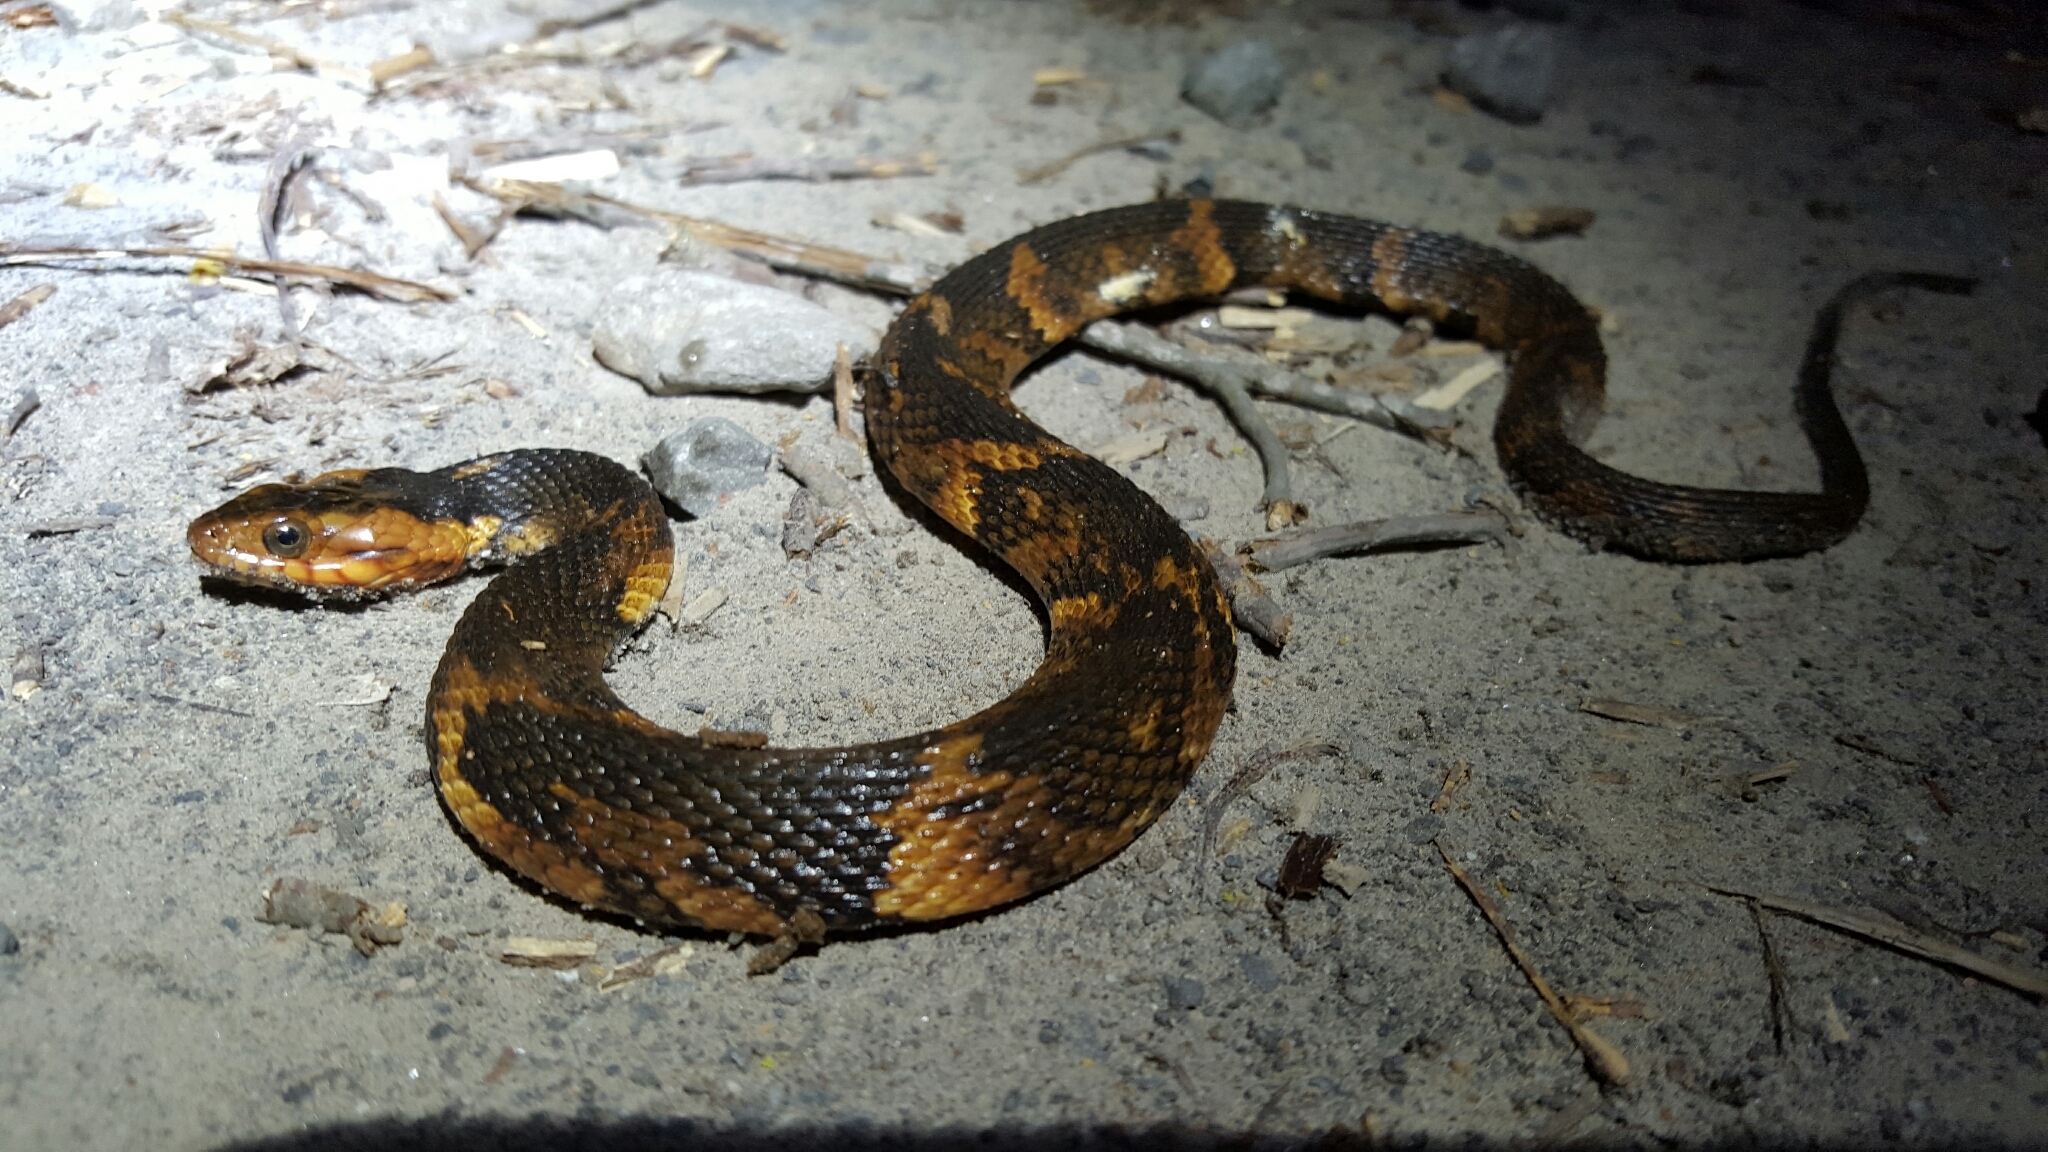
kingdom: Animalia
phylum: Chordata
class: Squamata
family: Colubridae
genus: Nerodia
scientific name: Nerodia fasciata
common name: Southern water snake
